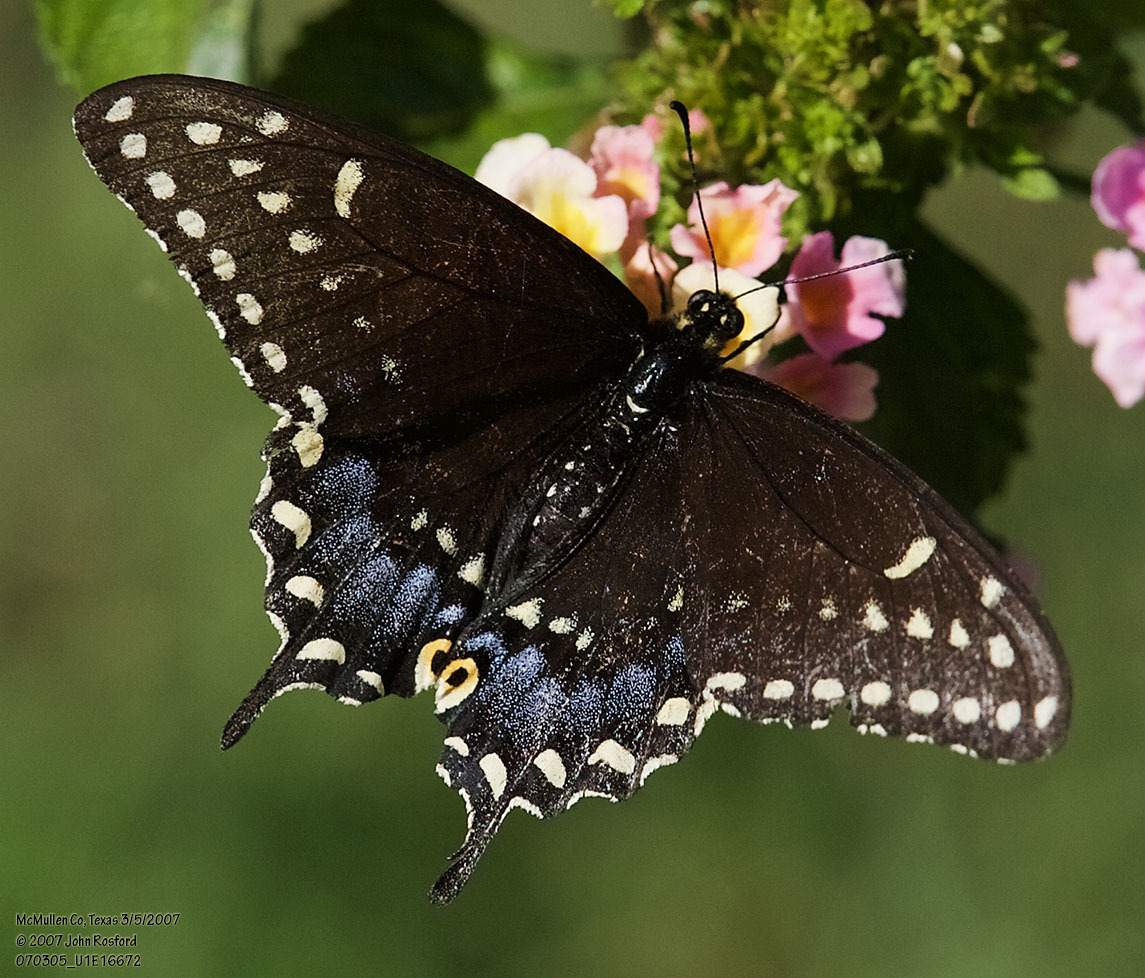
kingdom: Animalia
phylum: Arthropoda
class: Insecta
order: Lepidoptera
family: Papilionidae
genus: Papilio
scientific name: Papilio polyxenes
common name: Black swallowtail
